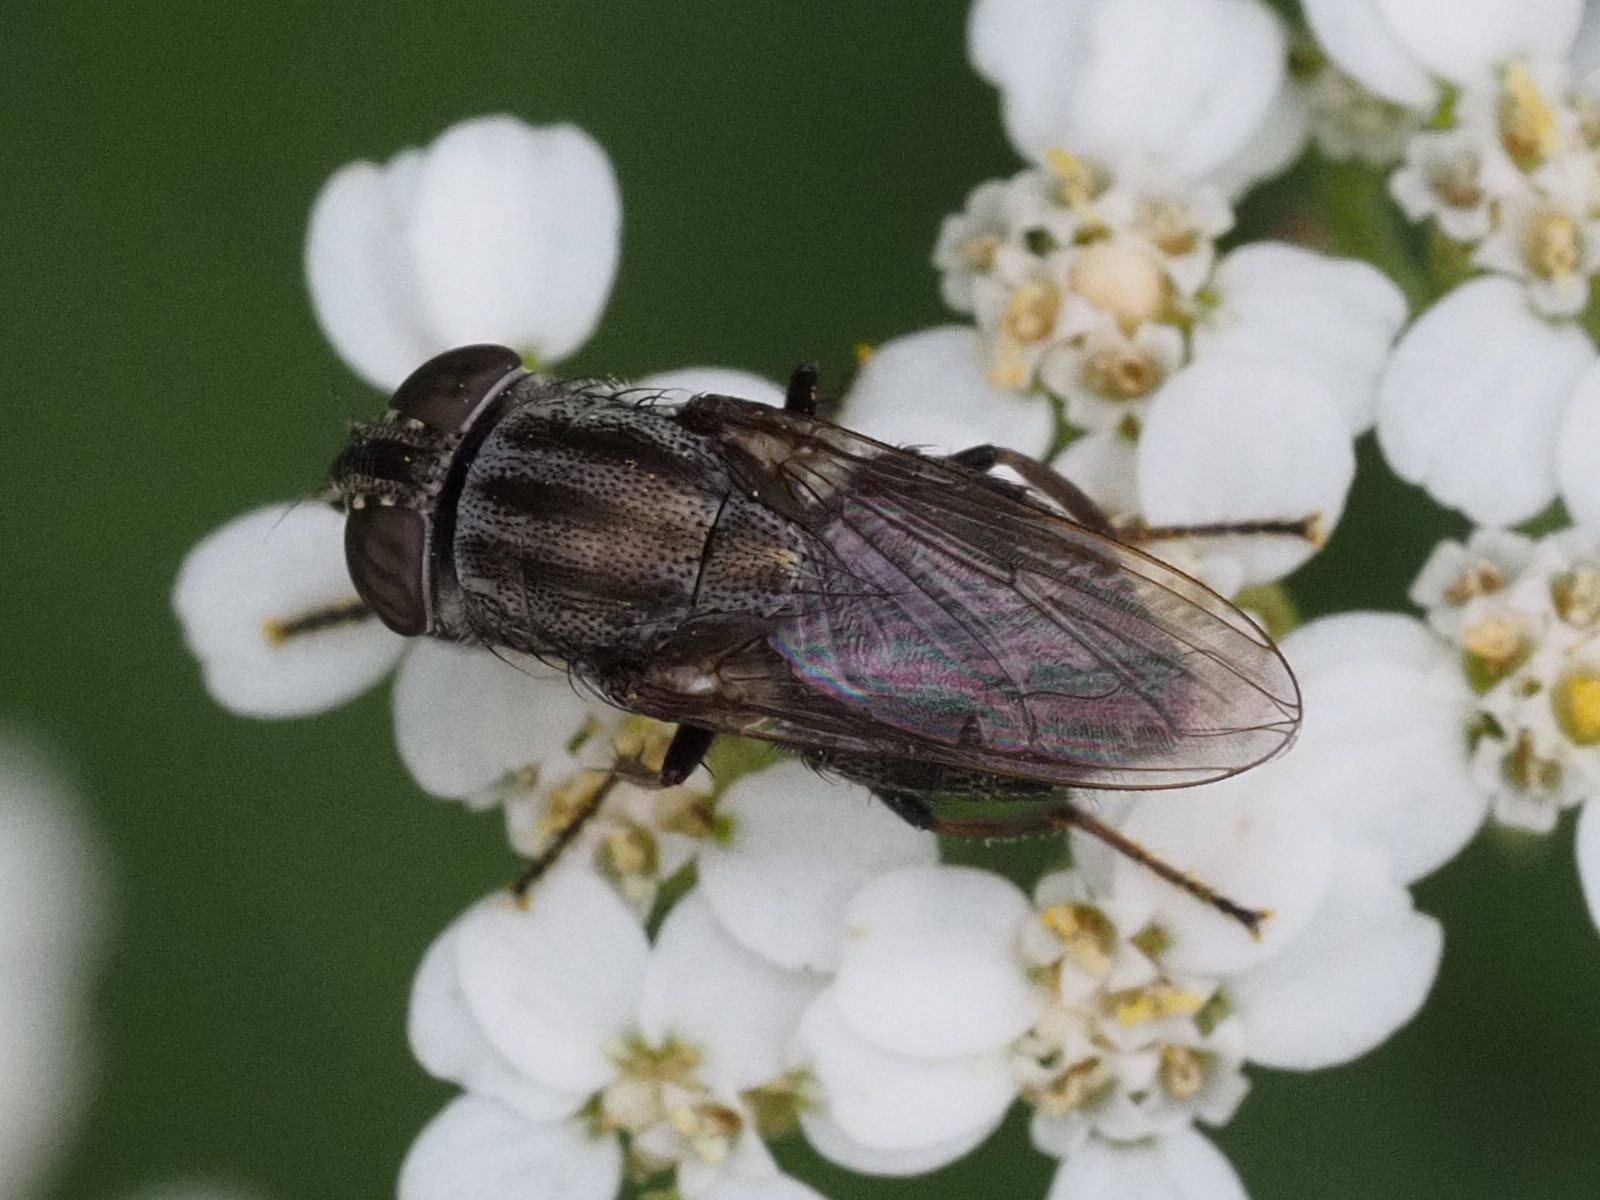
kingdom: Animalia
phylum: Arthropoda
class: Insecta
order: Diptera
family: Calliphoridae
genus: Stomorhina
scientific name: Stomorhina lunata
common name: Locust blowfly
